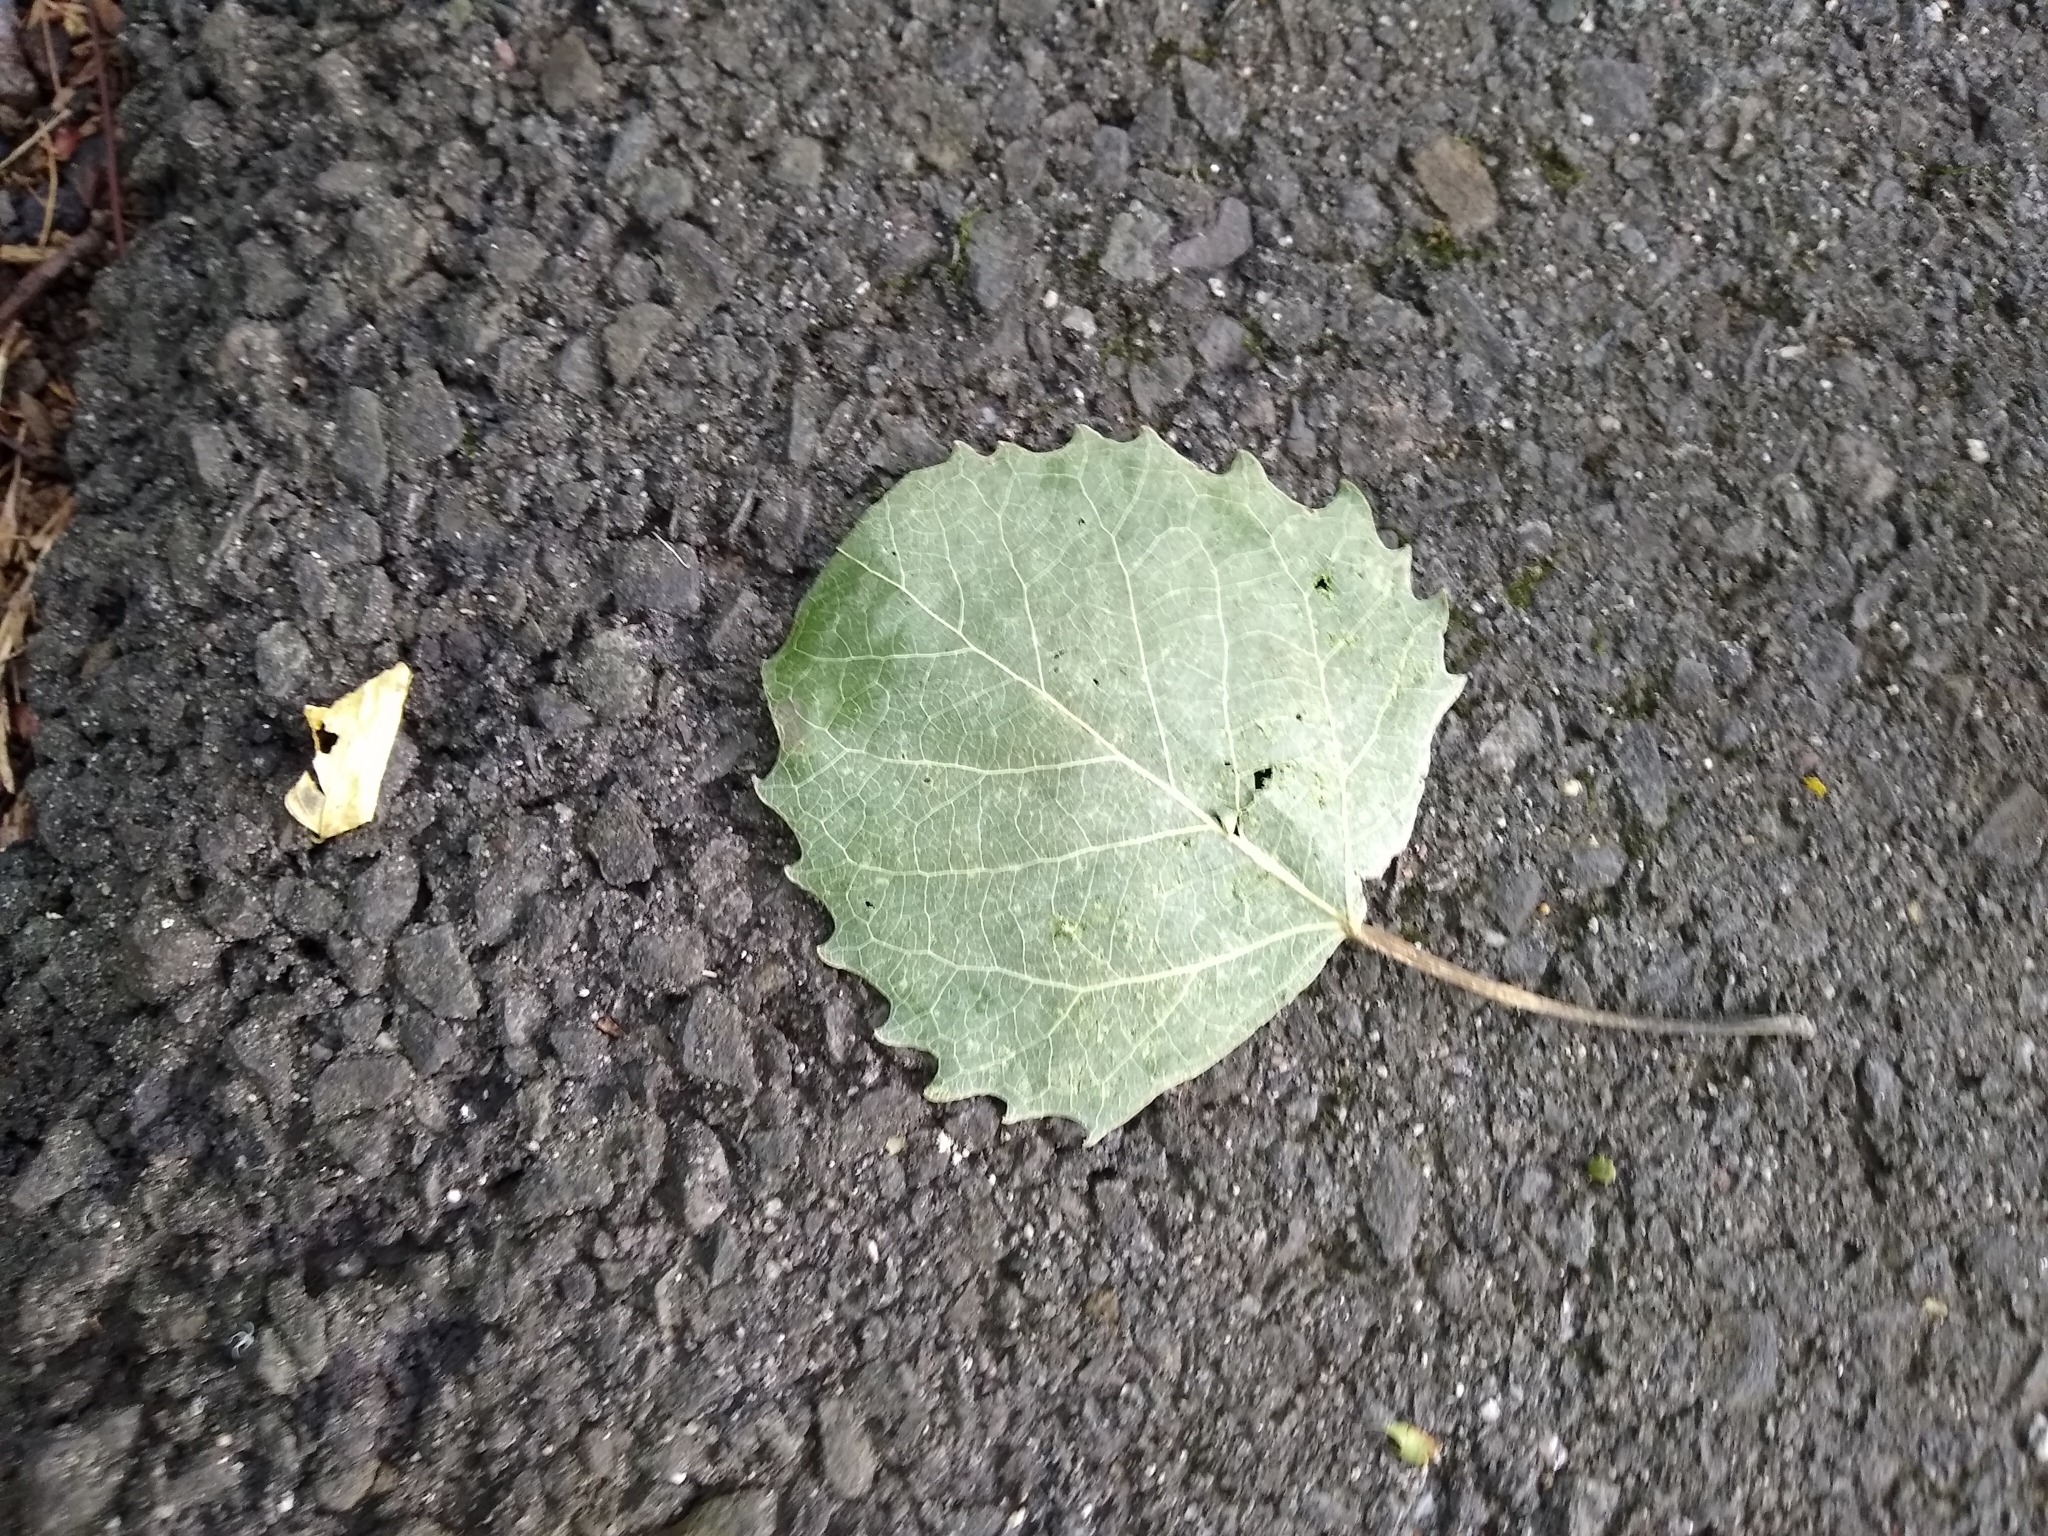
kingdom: Plantae
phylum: Tracheophyta
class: Magnoliopsida
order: Malpighiales
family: Salicaceae
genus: Populus
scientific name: Populus grandidentata
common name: Bigtooth aspen
